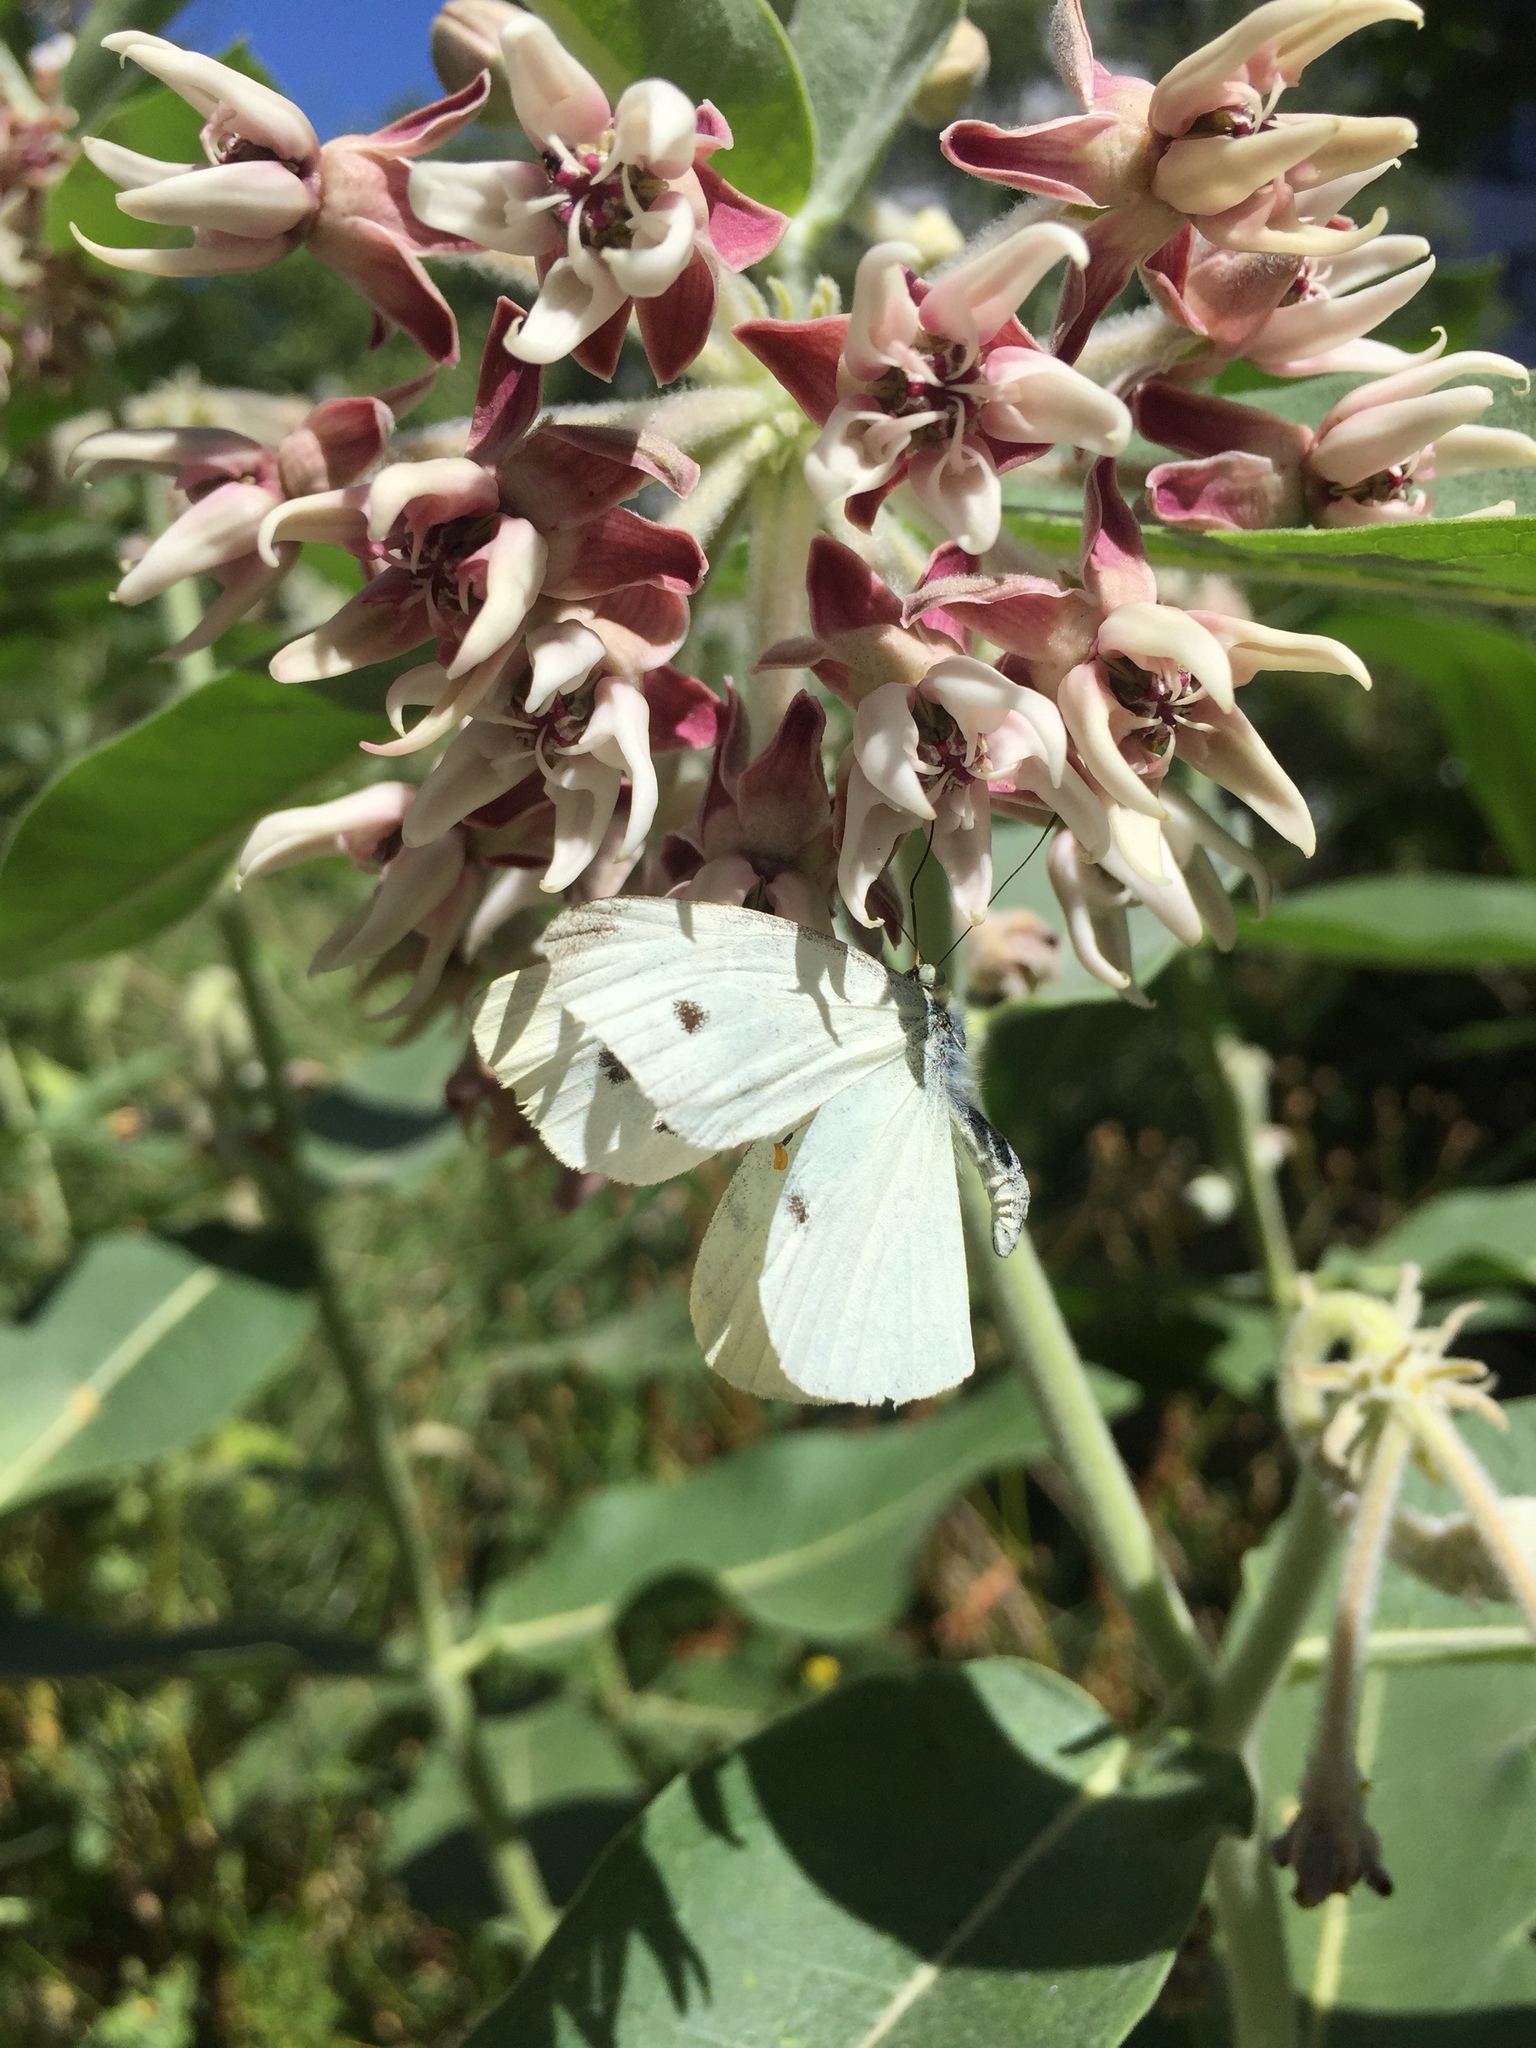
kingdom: Animalia
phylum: Arthropoda
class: Insecta
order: Lepidoptera
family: Pieridae
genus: Pieris
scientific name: Pieris rapae
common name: Small white
